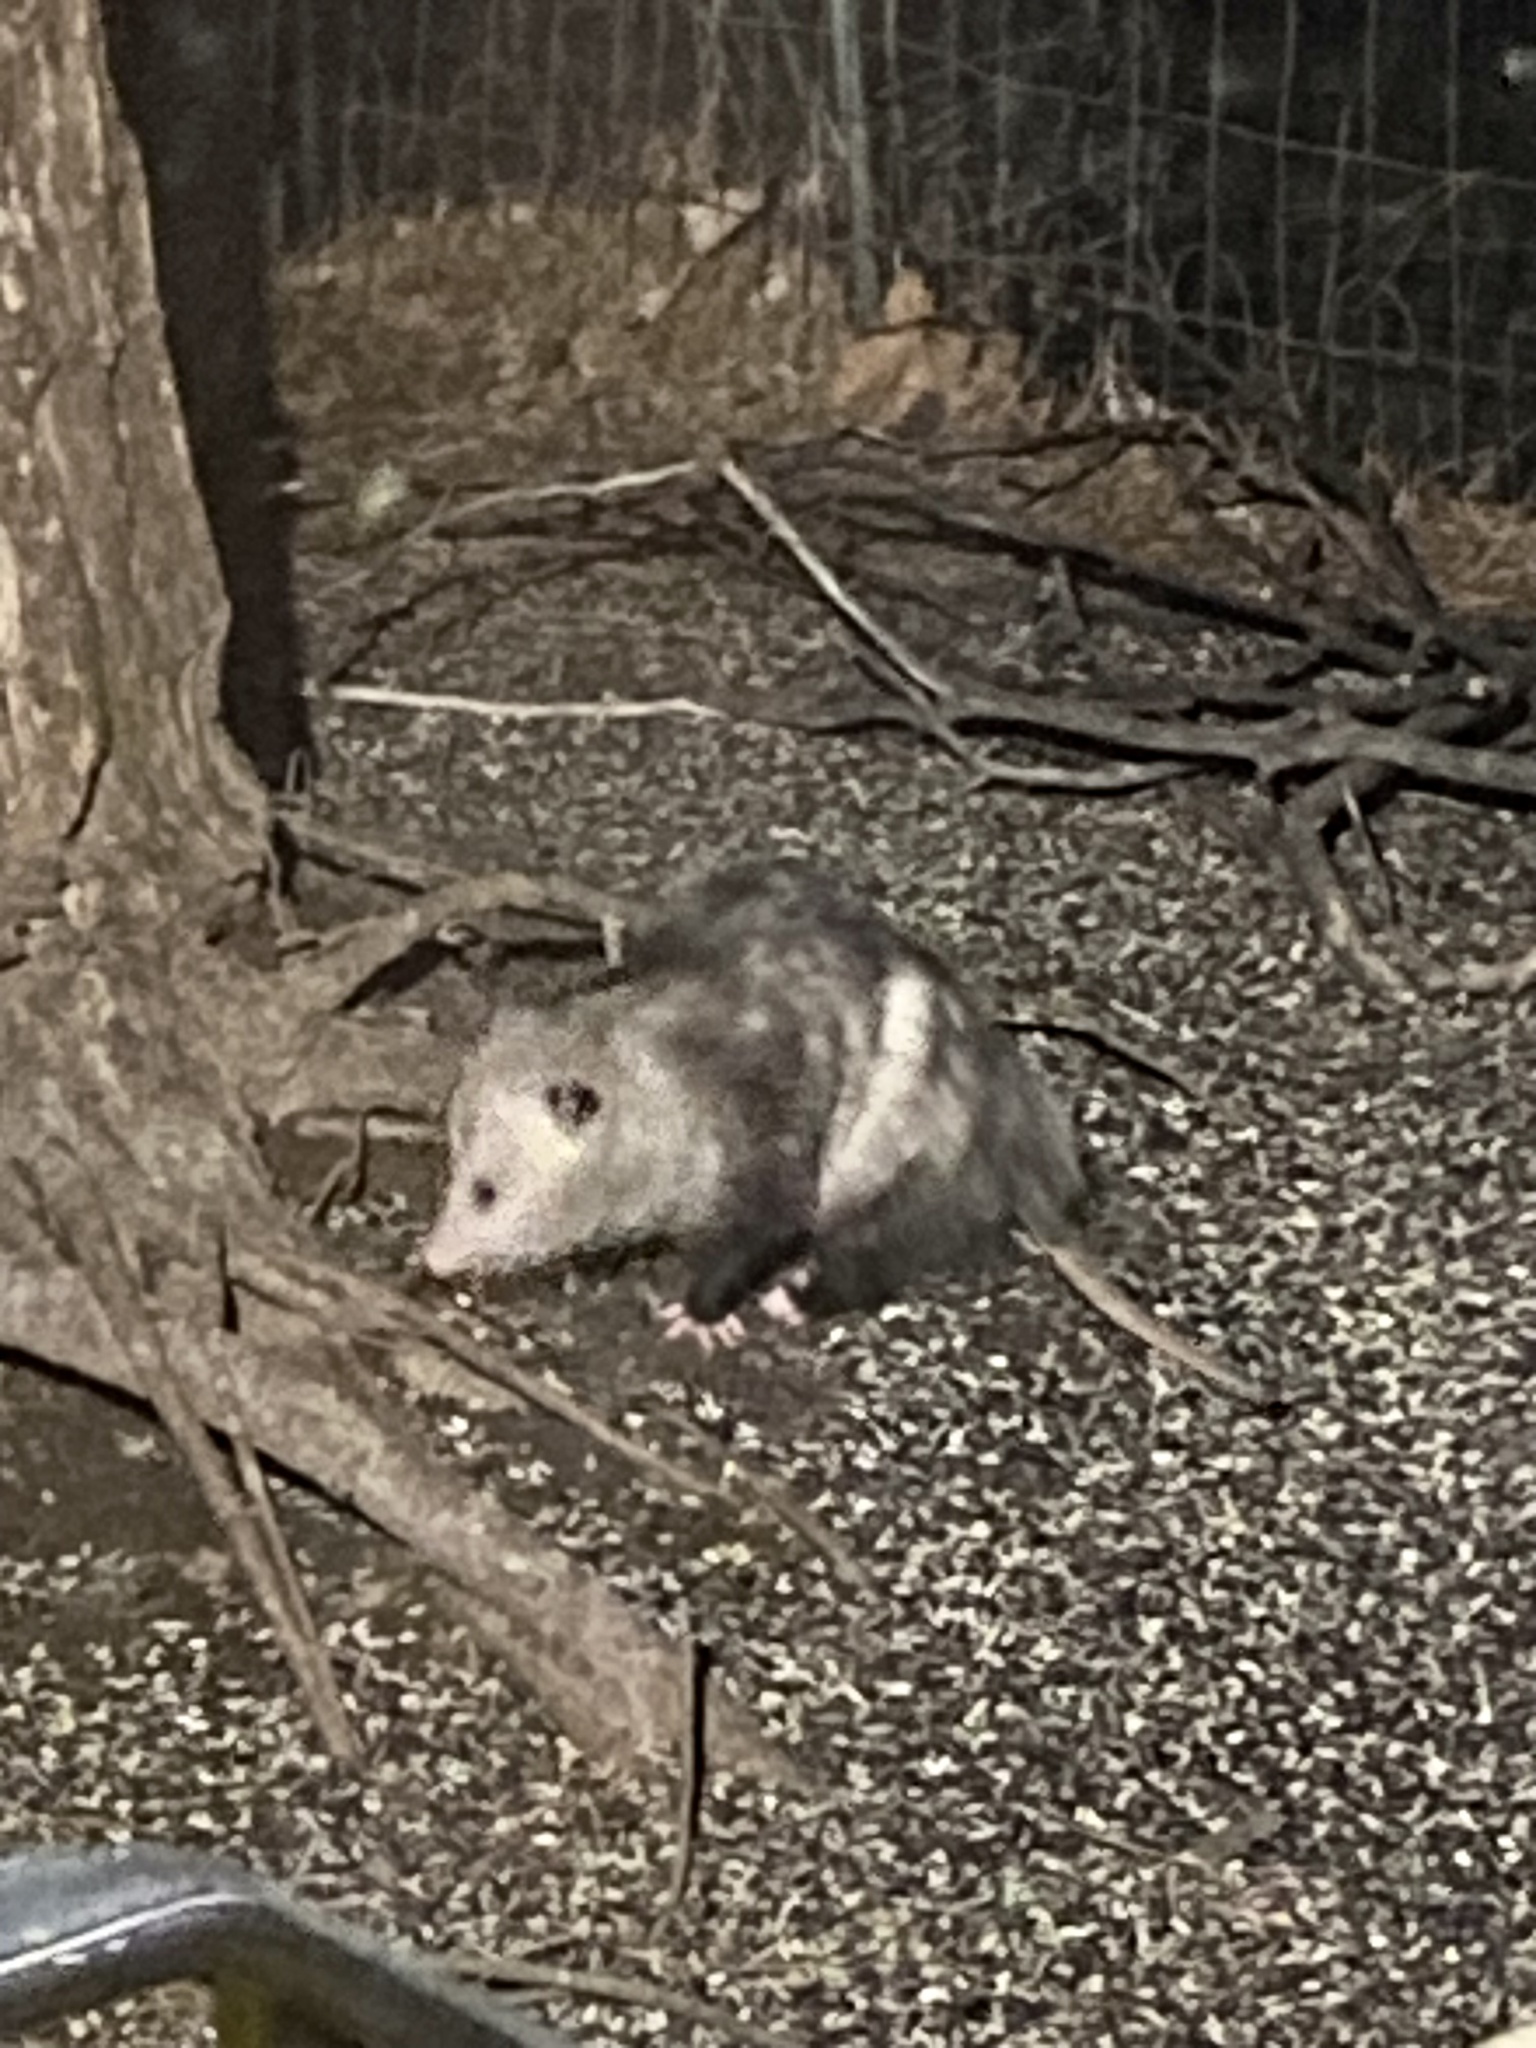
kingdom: Animalia
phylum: Chordata
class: Mammalia
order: Didelphimorphia
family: Didelphidae
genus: Didelphis
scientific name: Didelphis virginiana
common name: Virginia opossum
